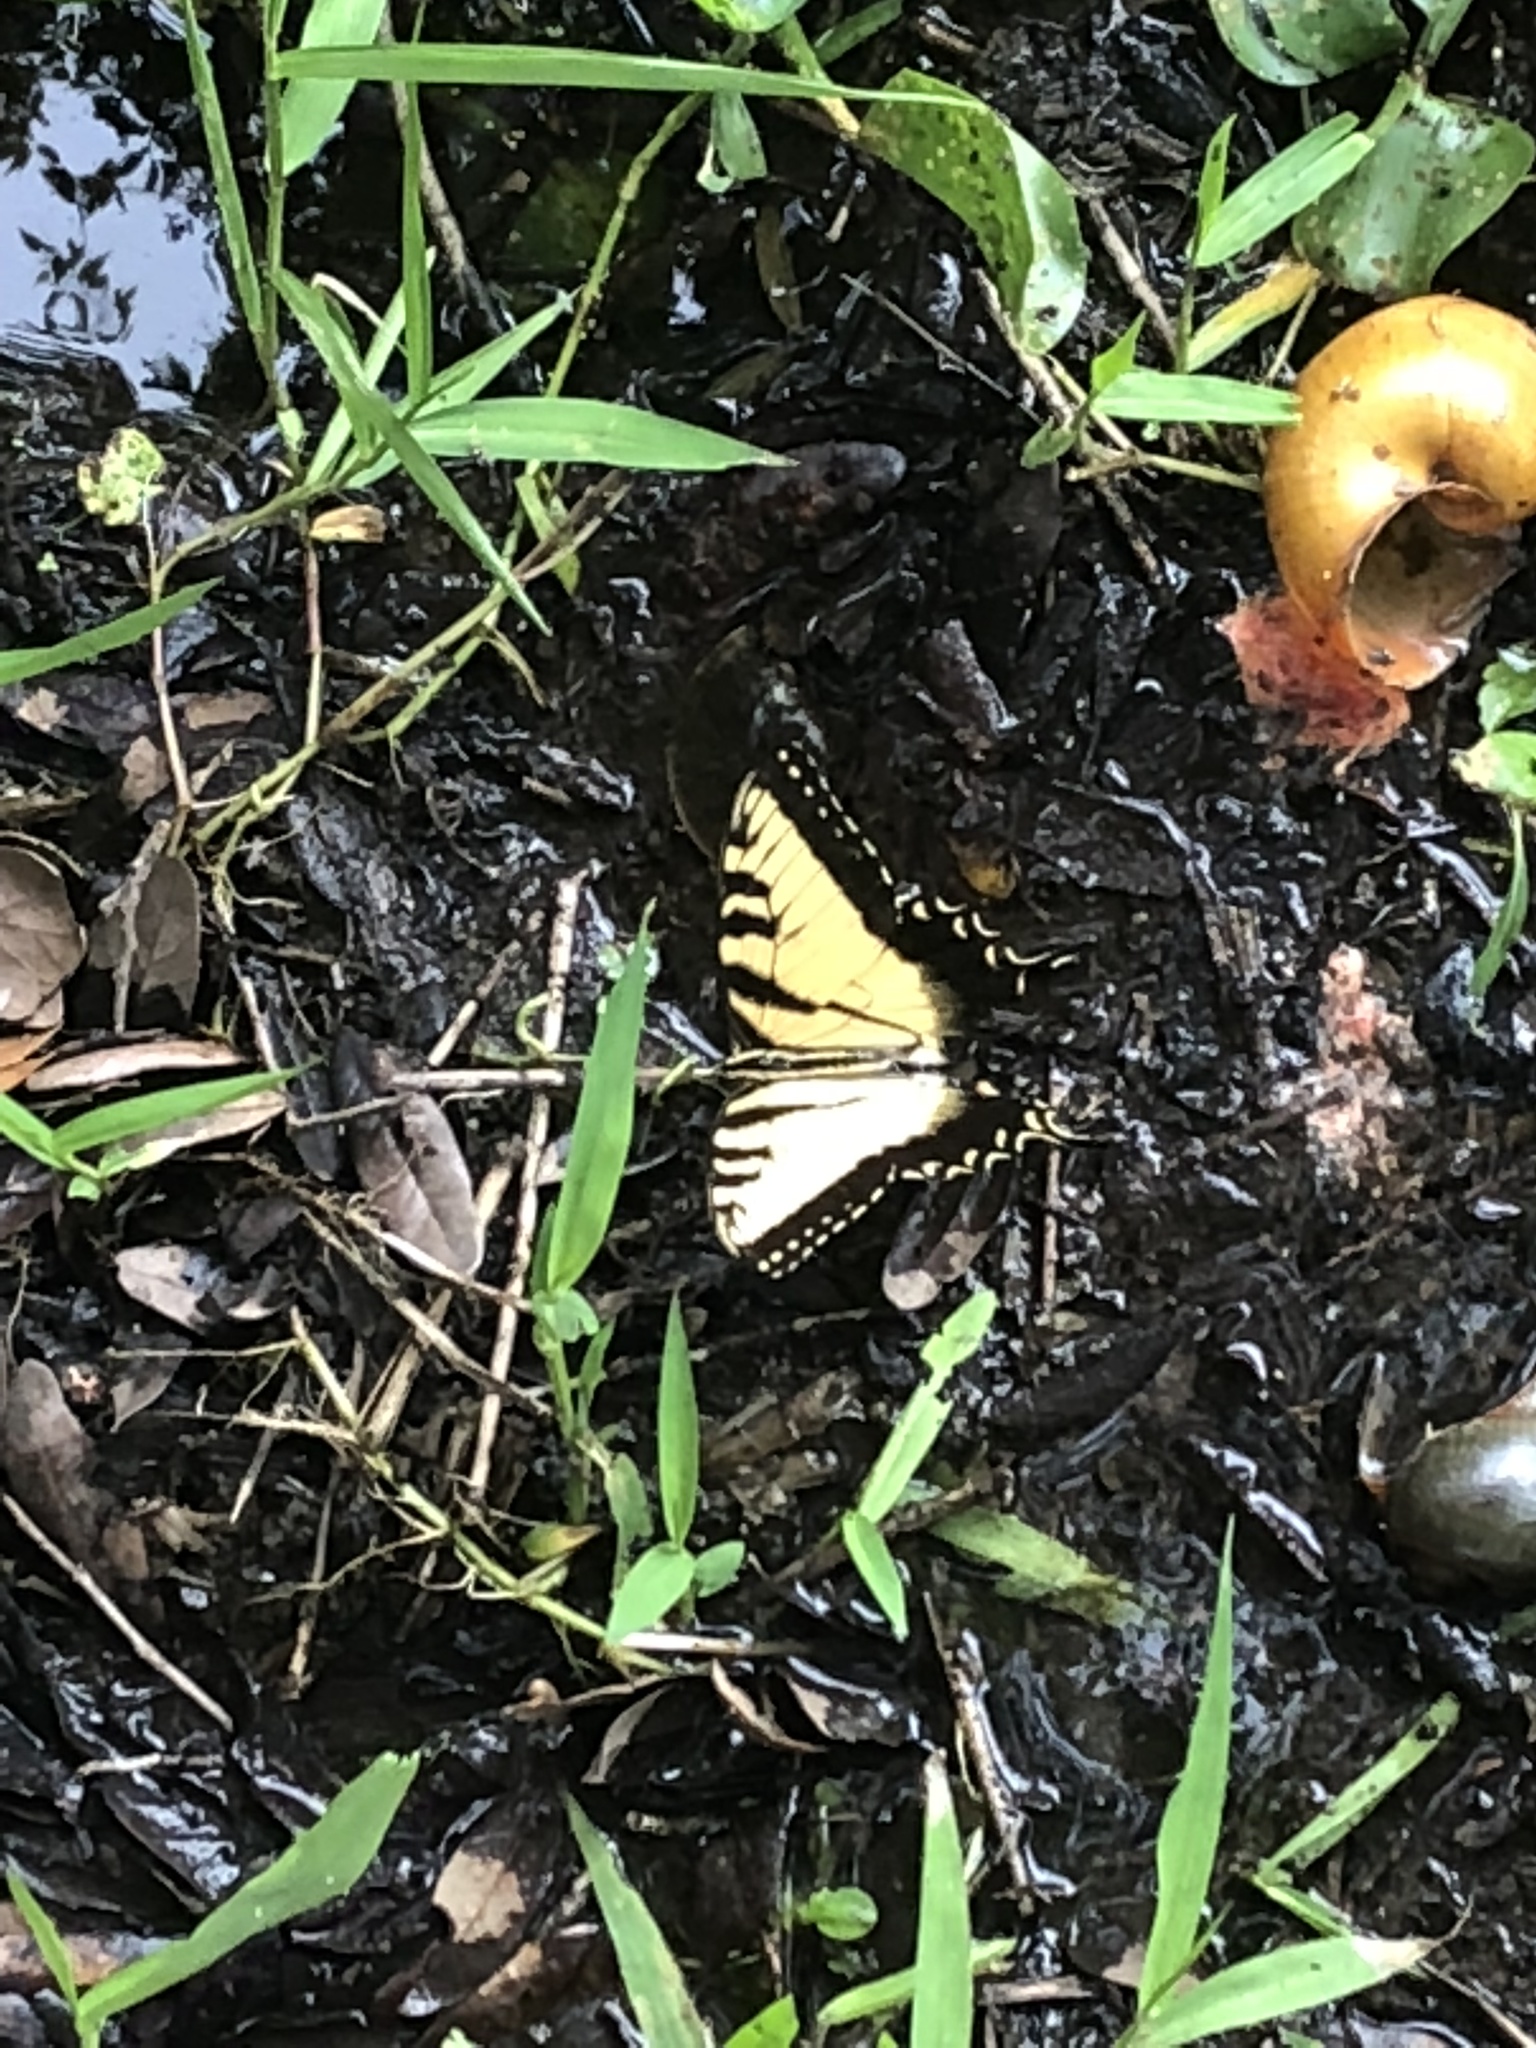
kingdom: Animalia
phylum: Arthropoda
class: Insecta
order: Lepidoptera
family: Papilionidae
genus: Papilio
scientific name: Papilio glaucus
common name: Tiger swallowtail
